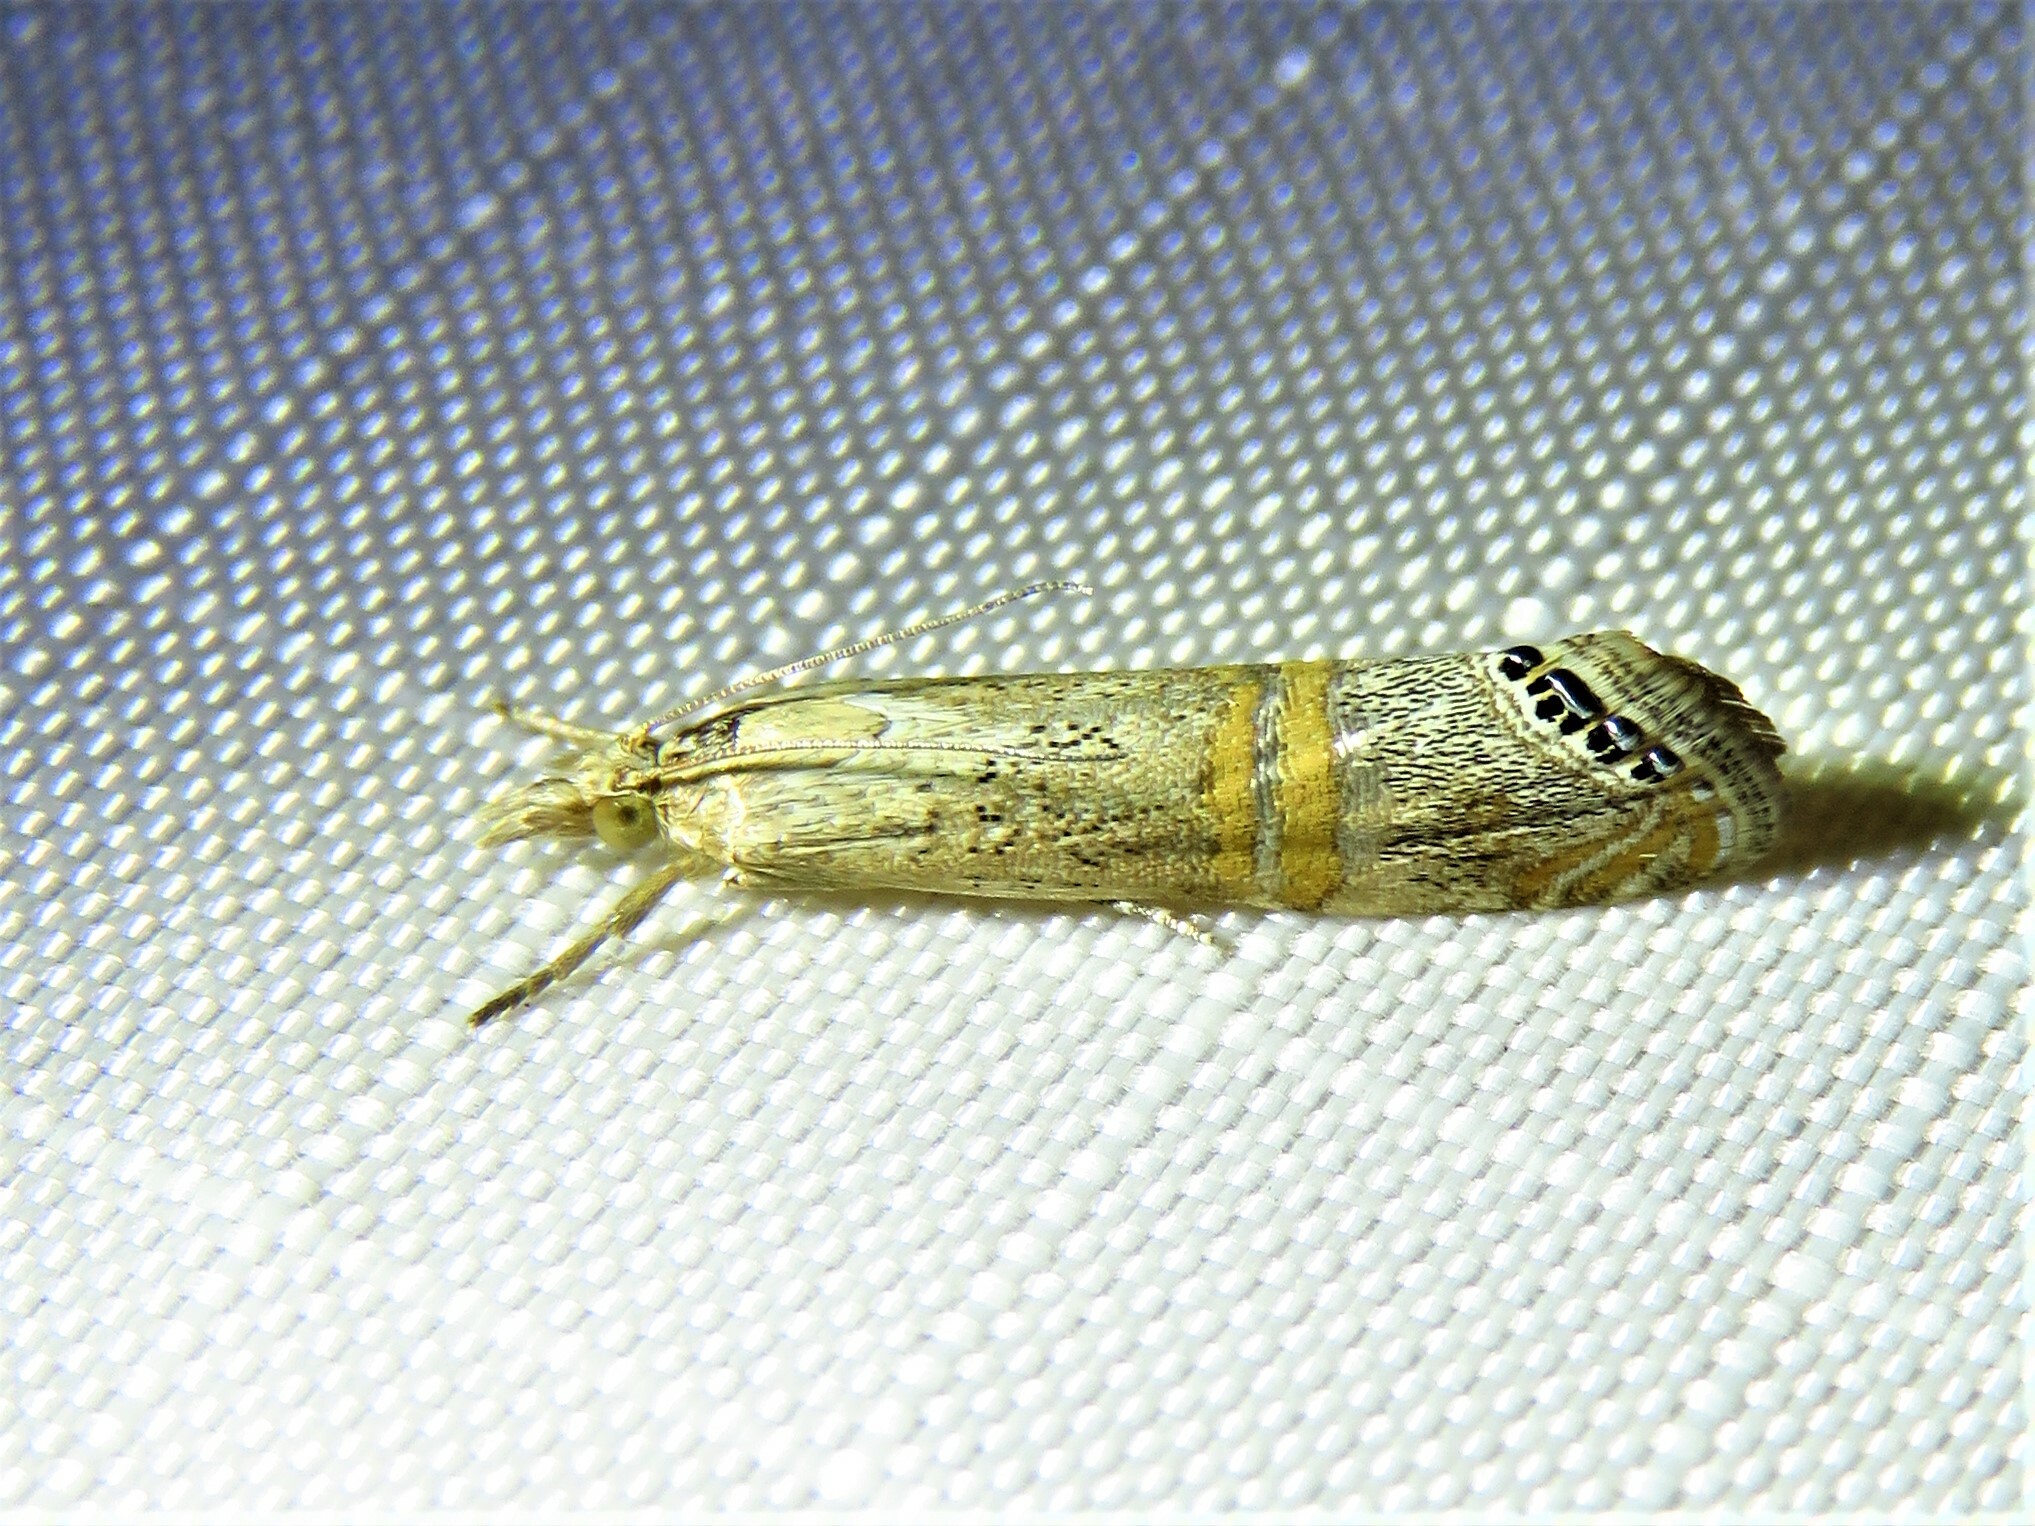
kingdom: Animalia
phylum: Arthropoda
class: Insecta
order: Lepidoptera
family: Crambidae
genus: Euchromius
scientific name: Euchromius ocellea
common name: Necklace veneer moth
